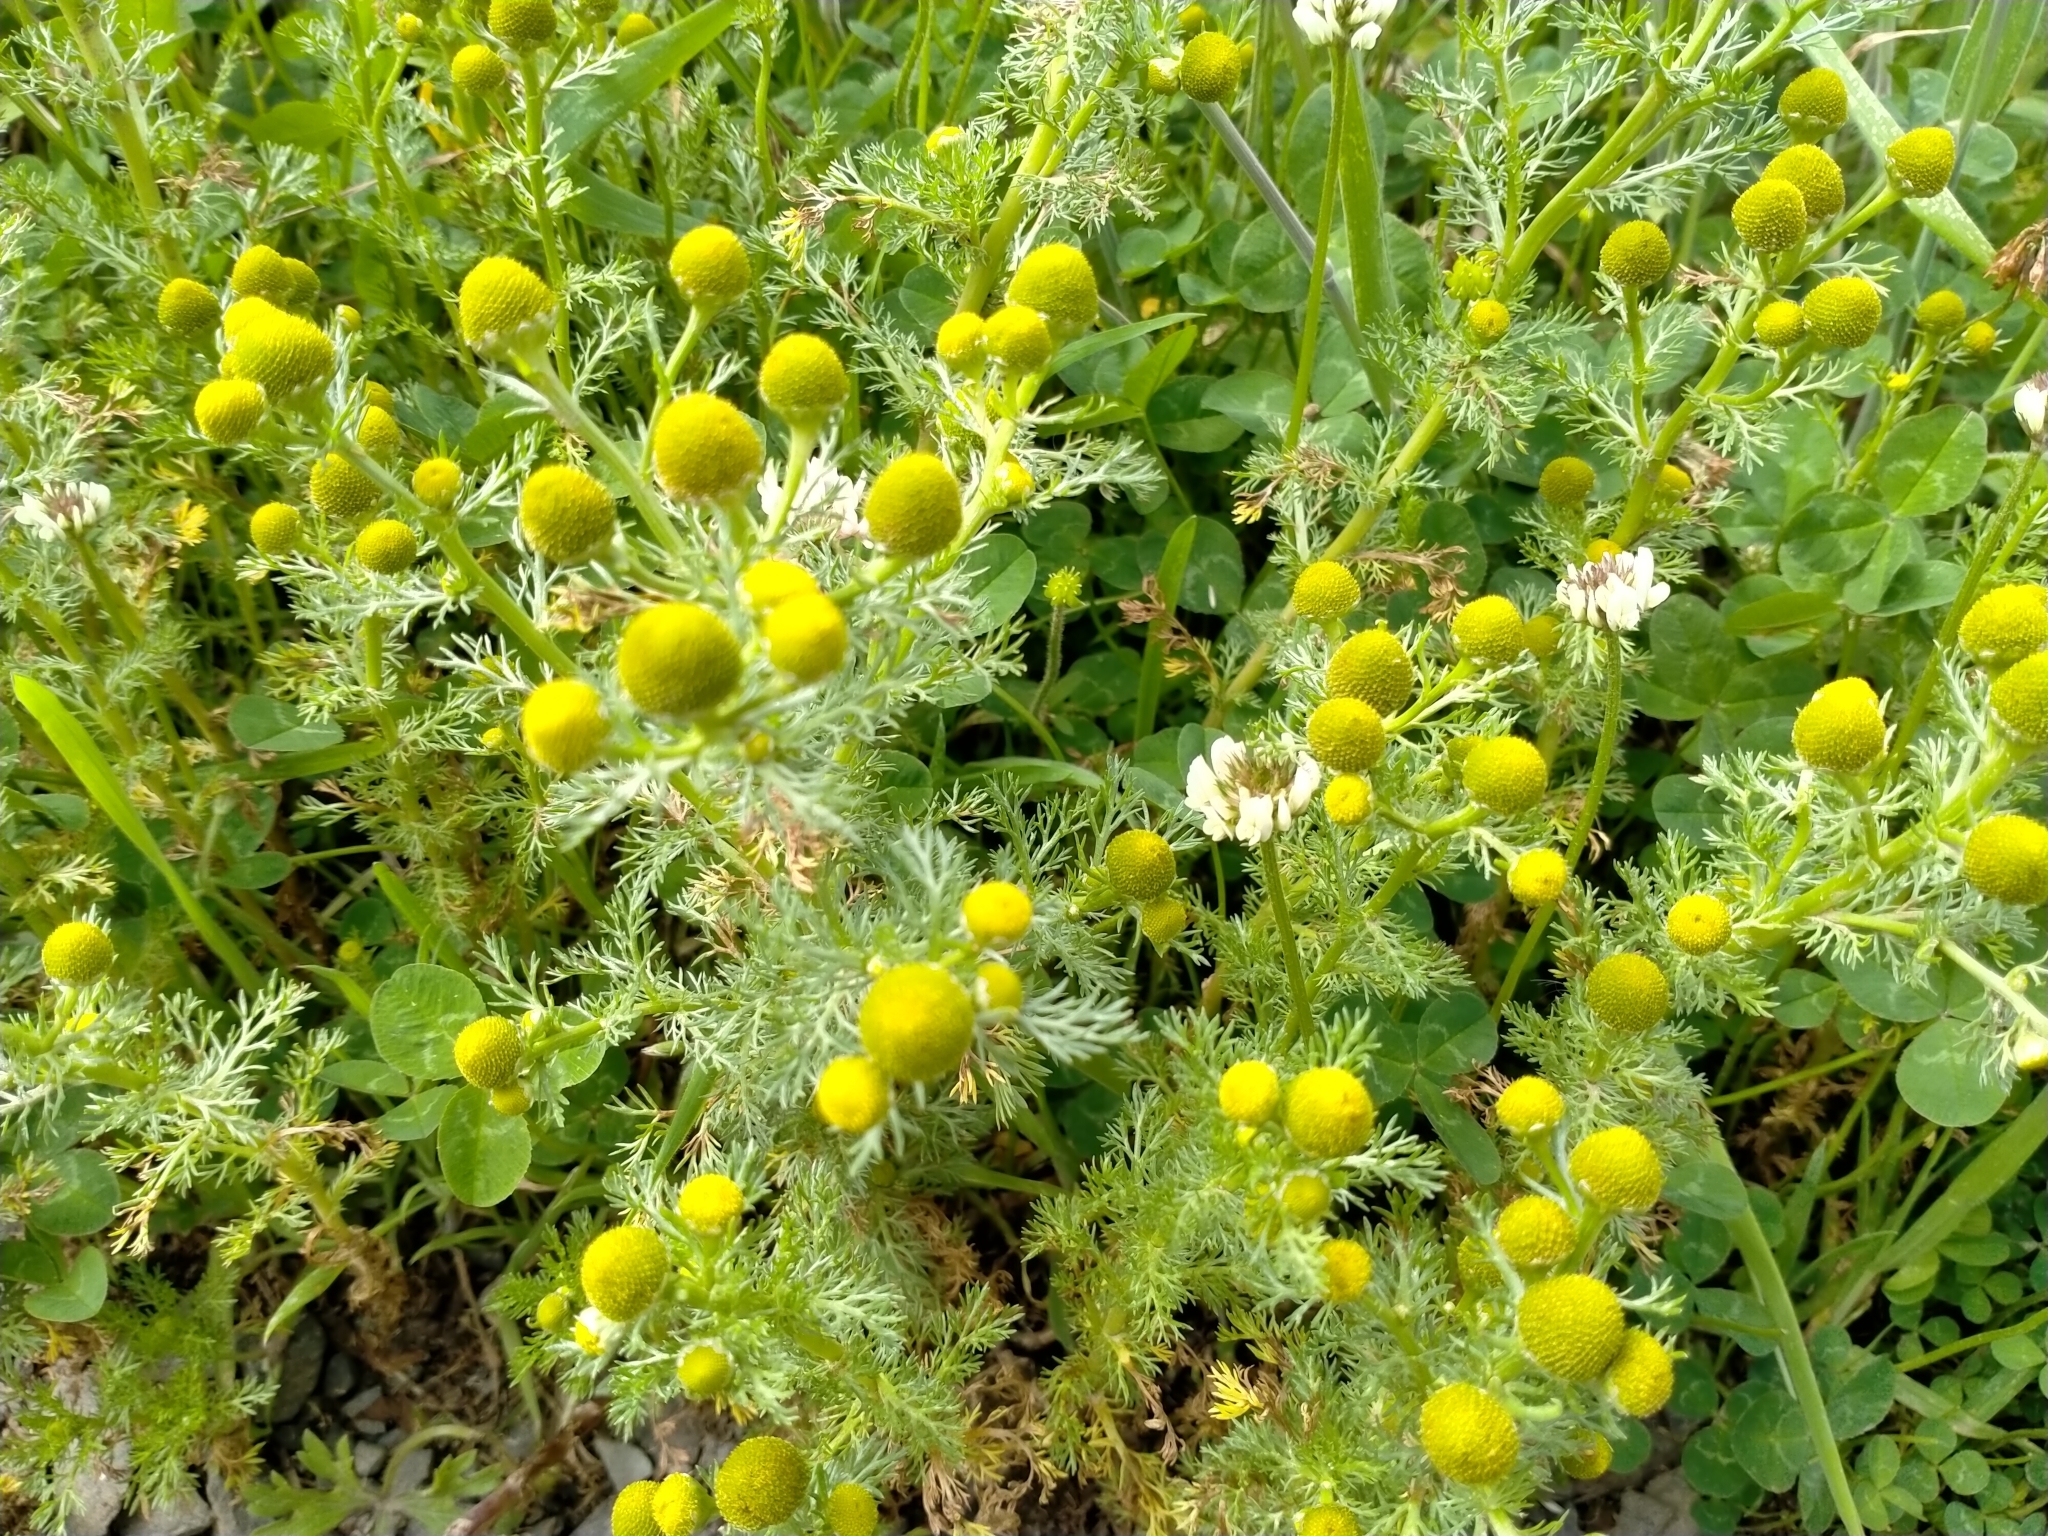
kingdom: Plantae
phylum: Tracheophyta
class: Magnoliopsida
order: Asterales
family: Asteraceae
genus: Matricaria
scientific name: Matricaria discoidea
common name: Disc mayweed
